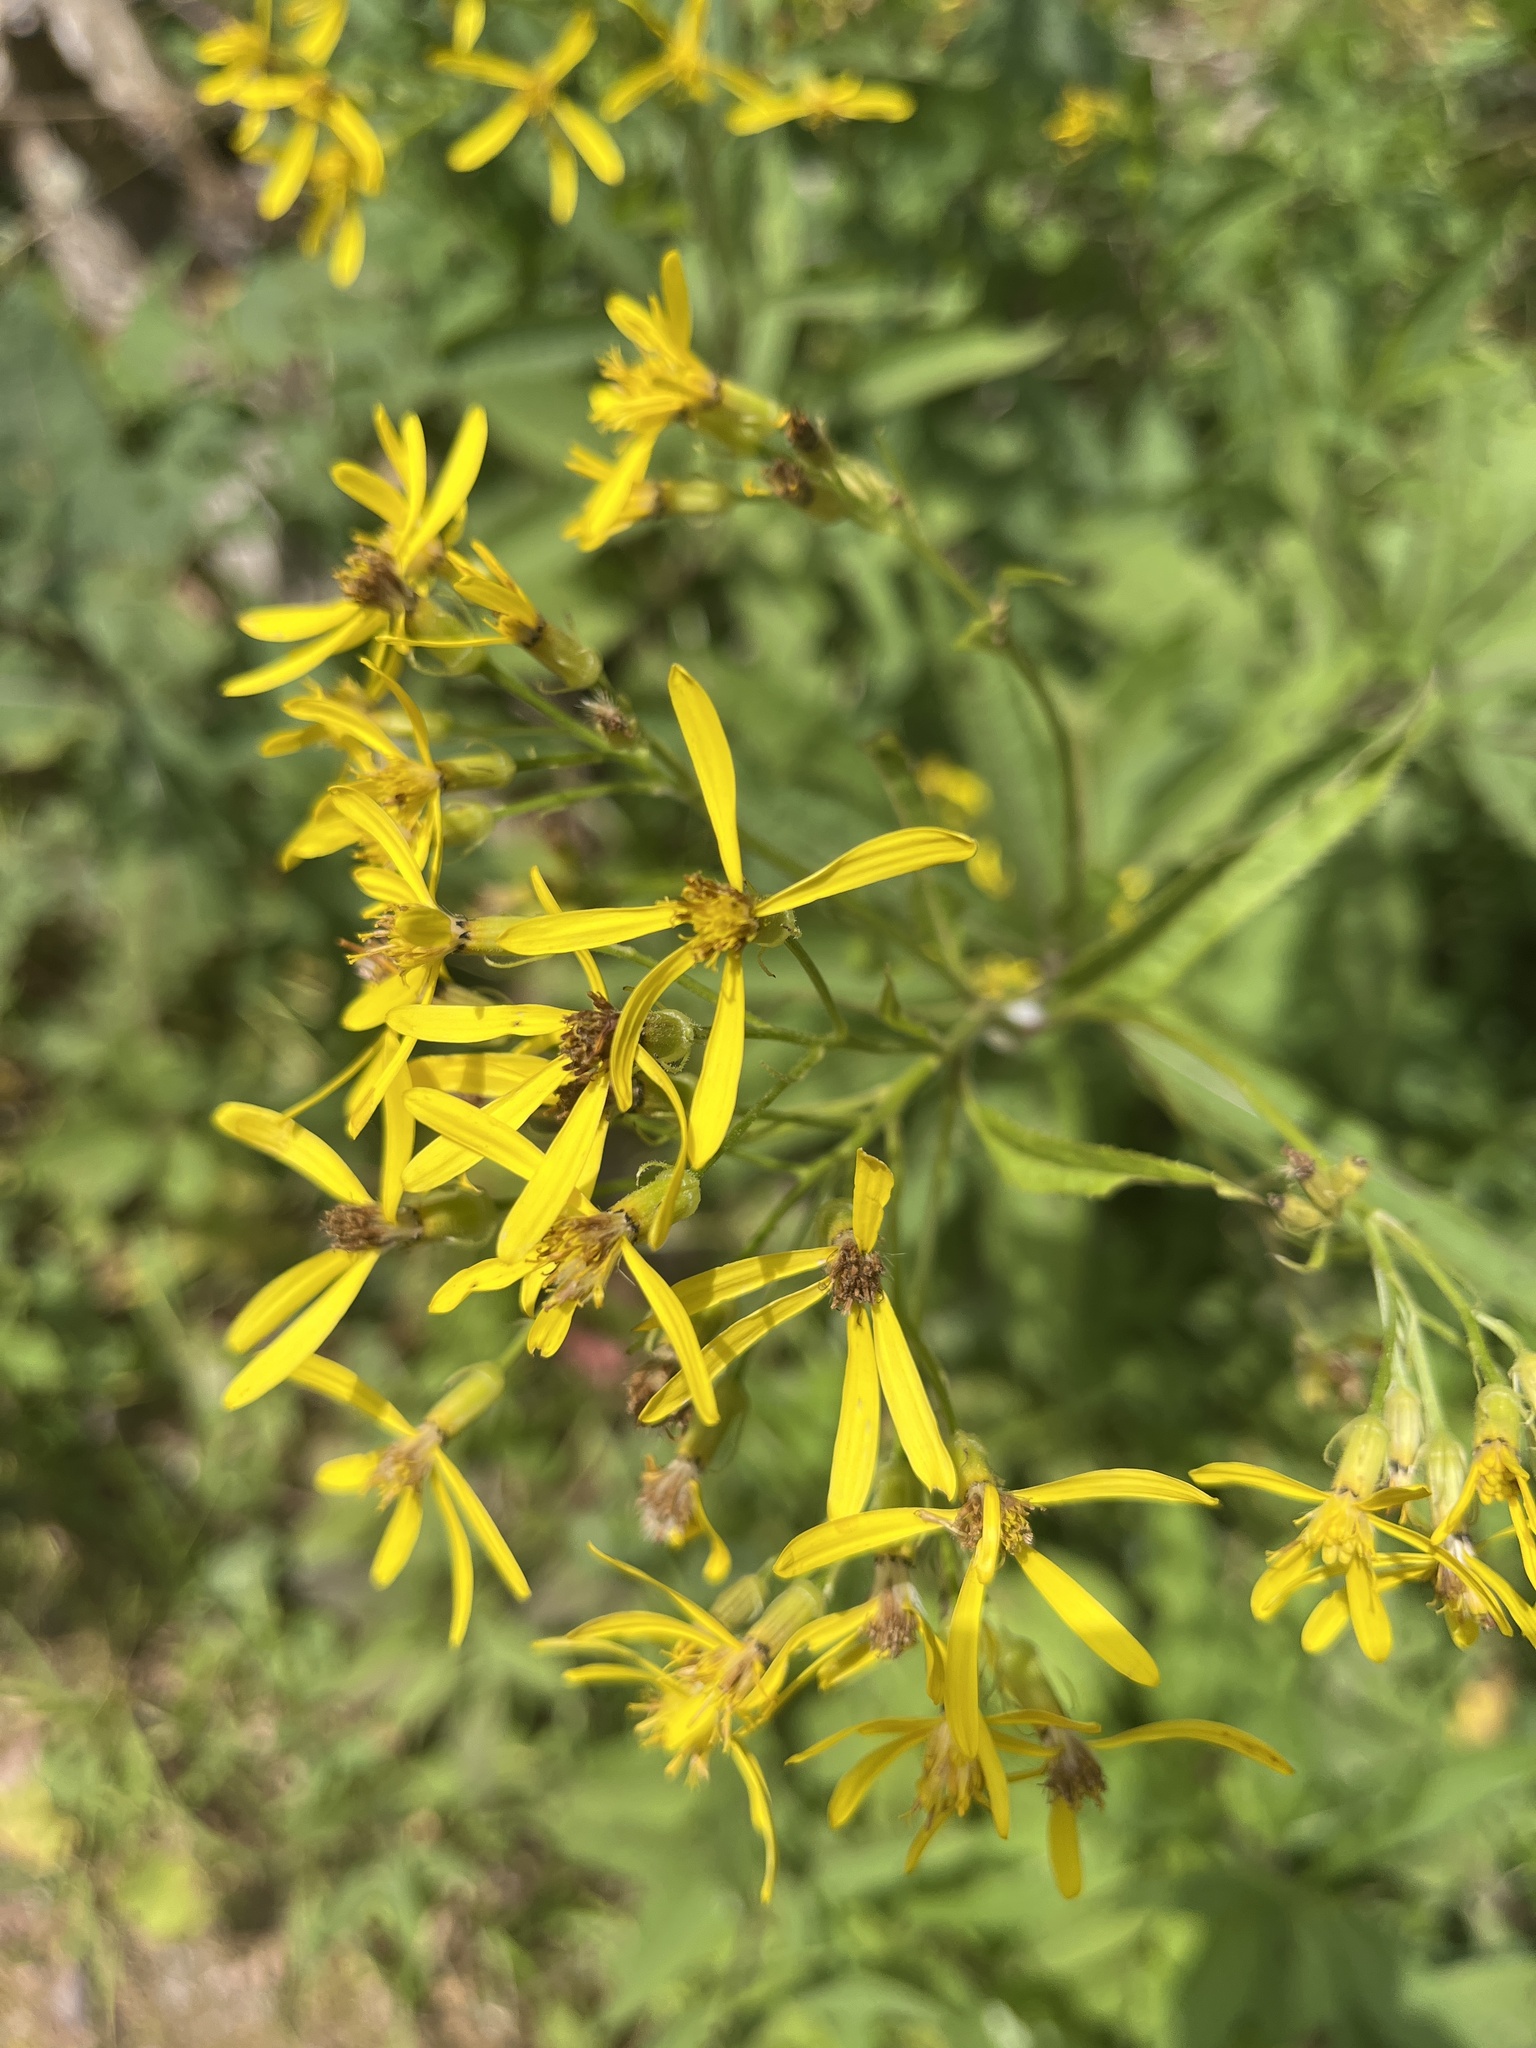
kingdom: Plantae
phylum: Tracheophyta
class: Magnoliopsida
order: Asterales
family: Asteraceae
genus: Senecio
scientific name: Senecio ovatus
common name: Wood ragwort
